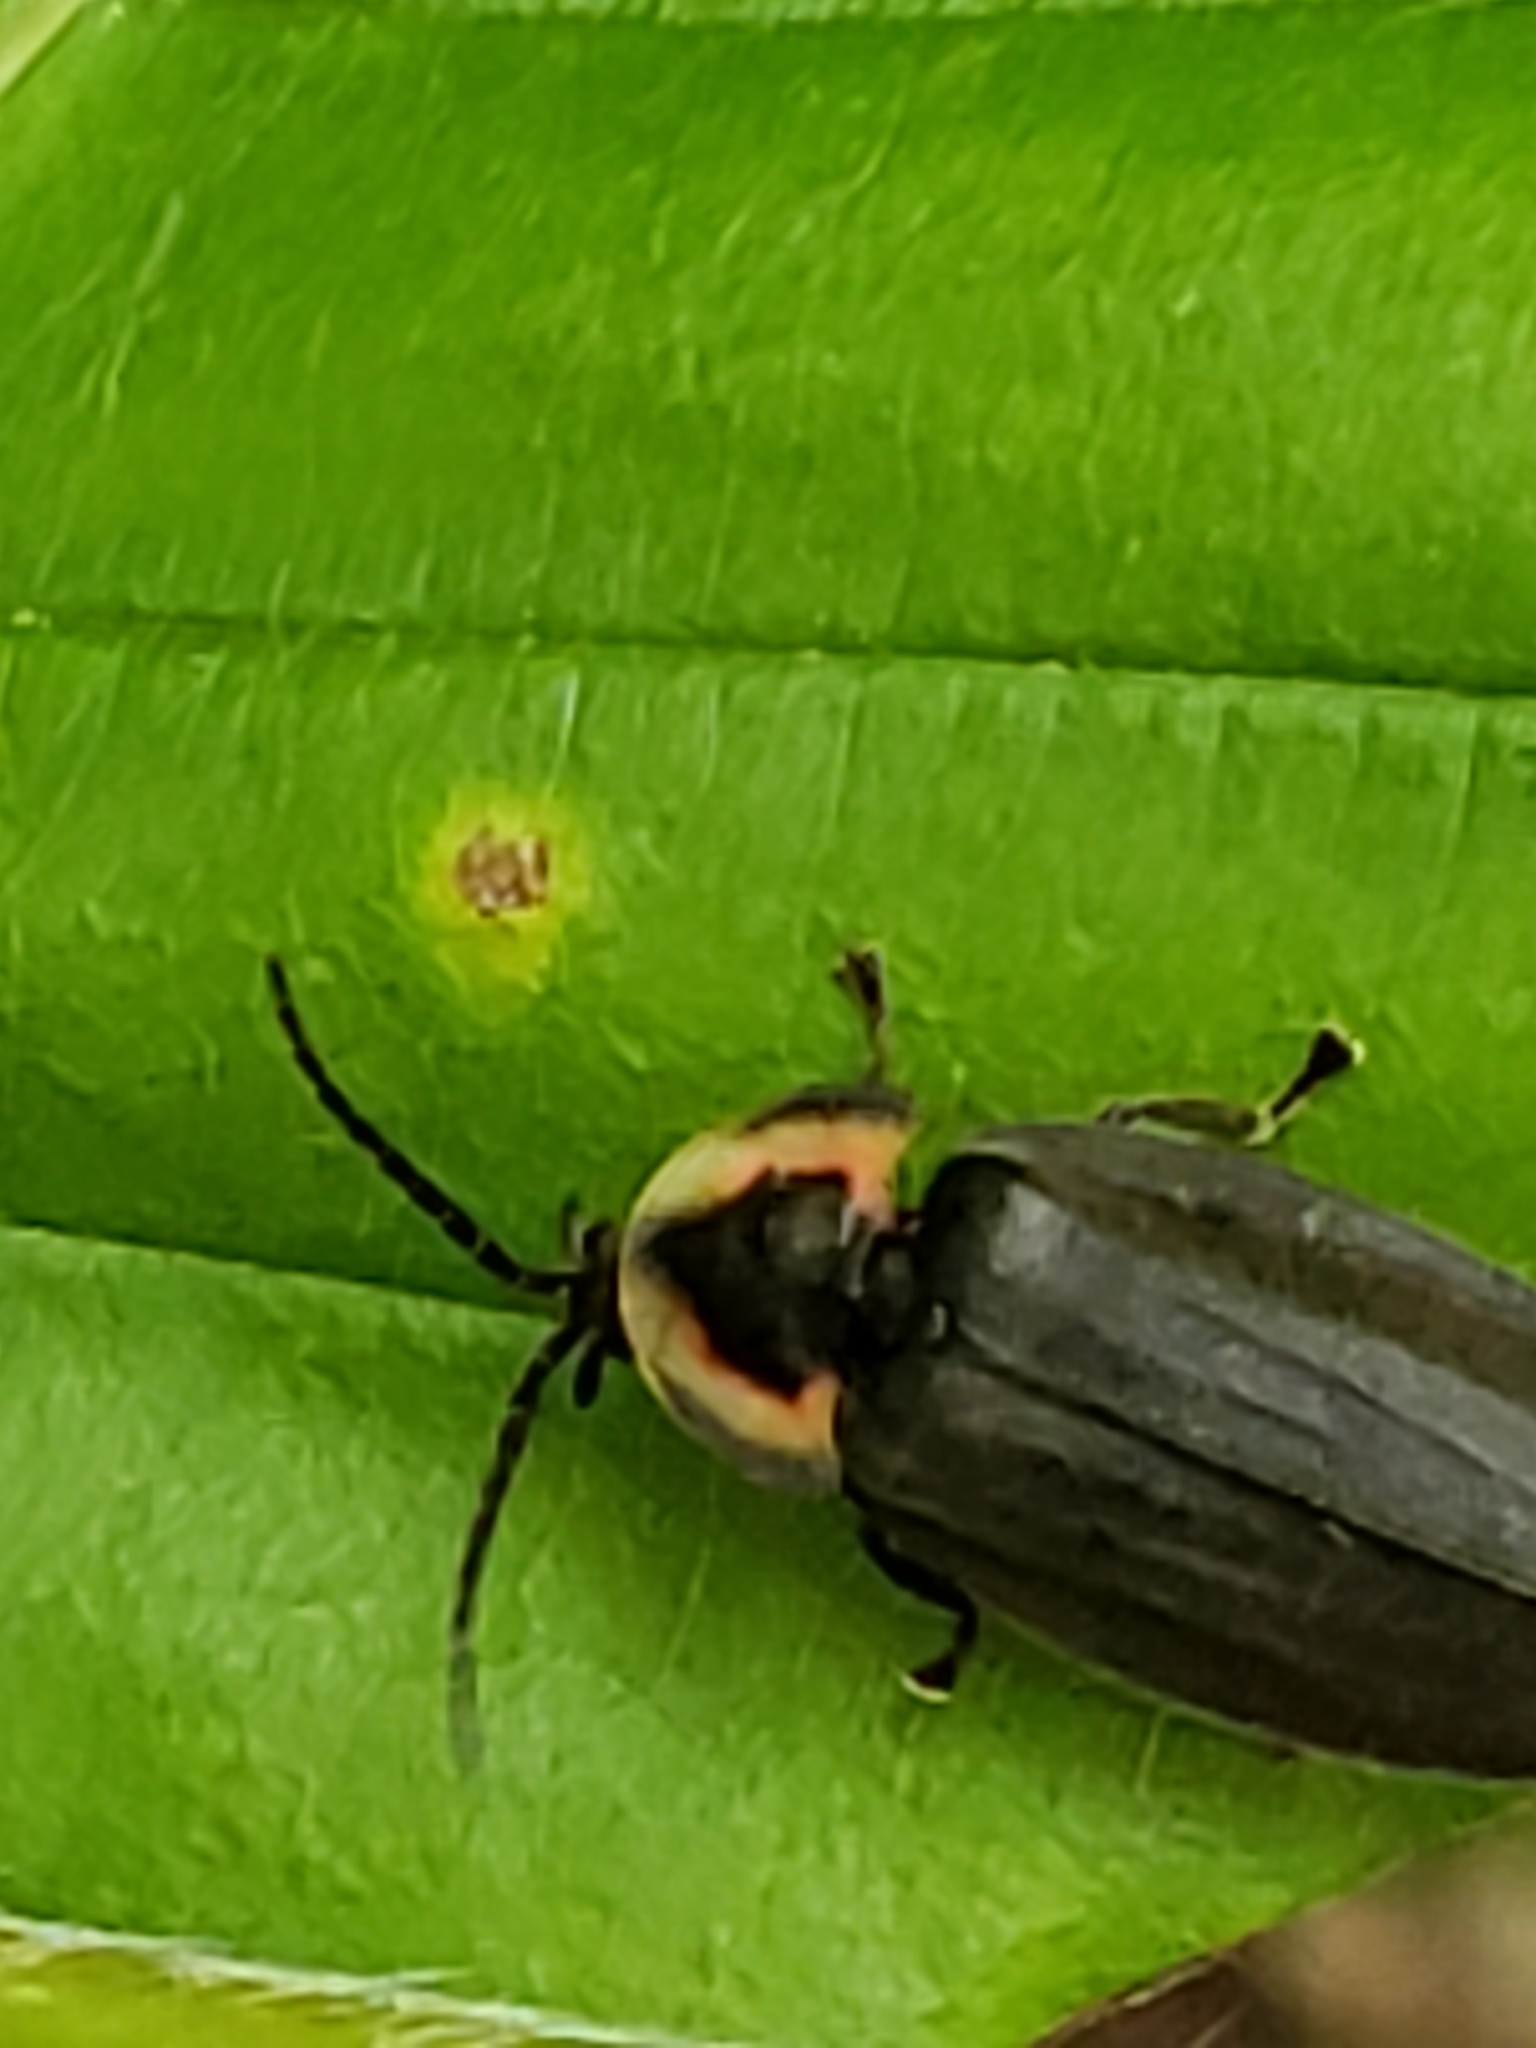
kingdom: Animalia
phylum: Arthropoda
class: Insecta
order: Coleoptera
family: Lampyridae
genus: Photinus
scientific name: Photinus corrusca
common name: Winter firefly
